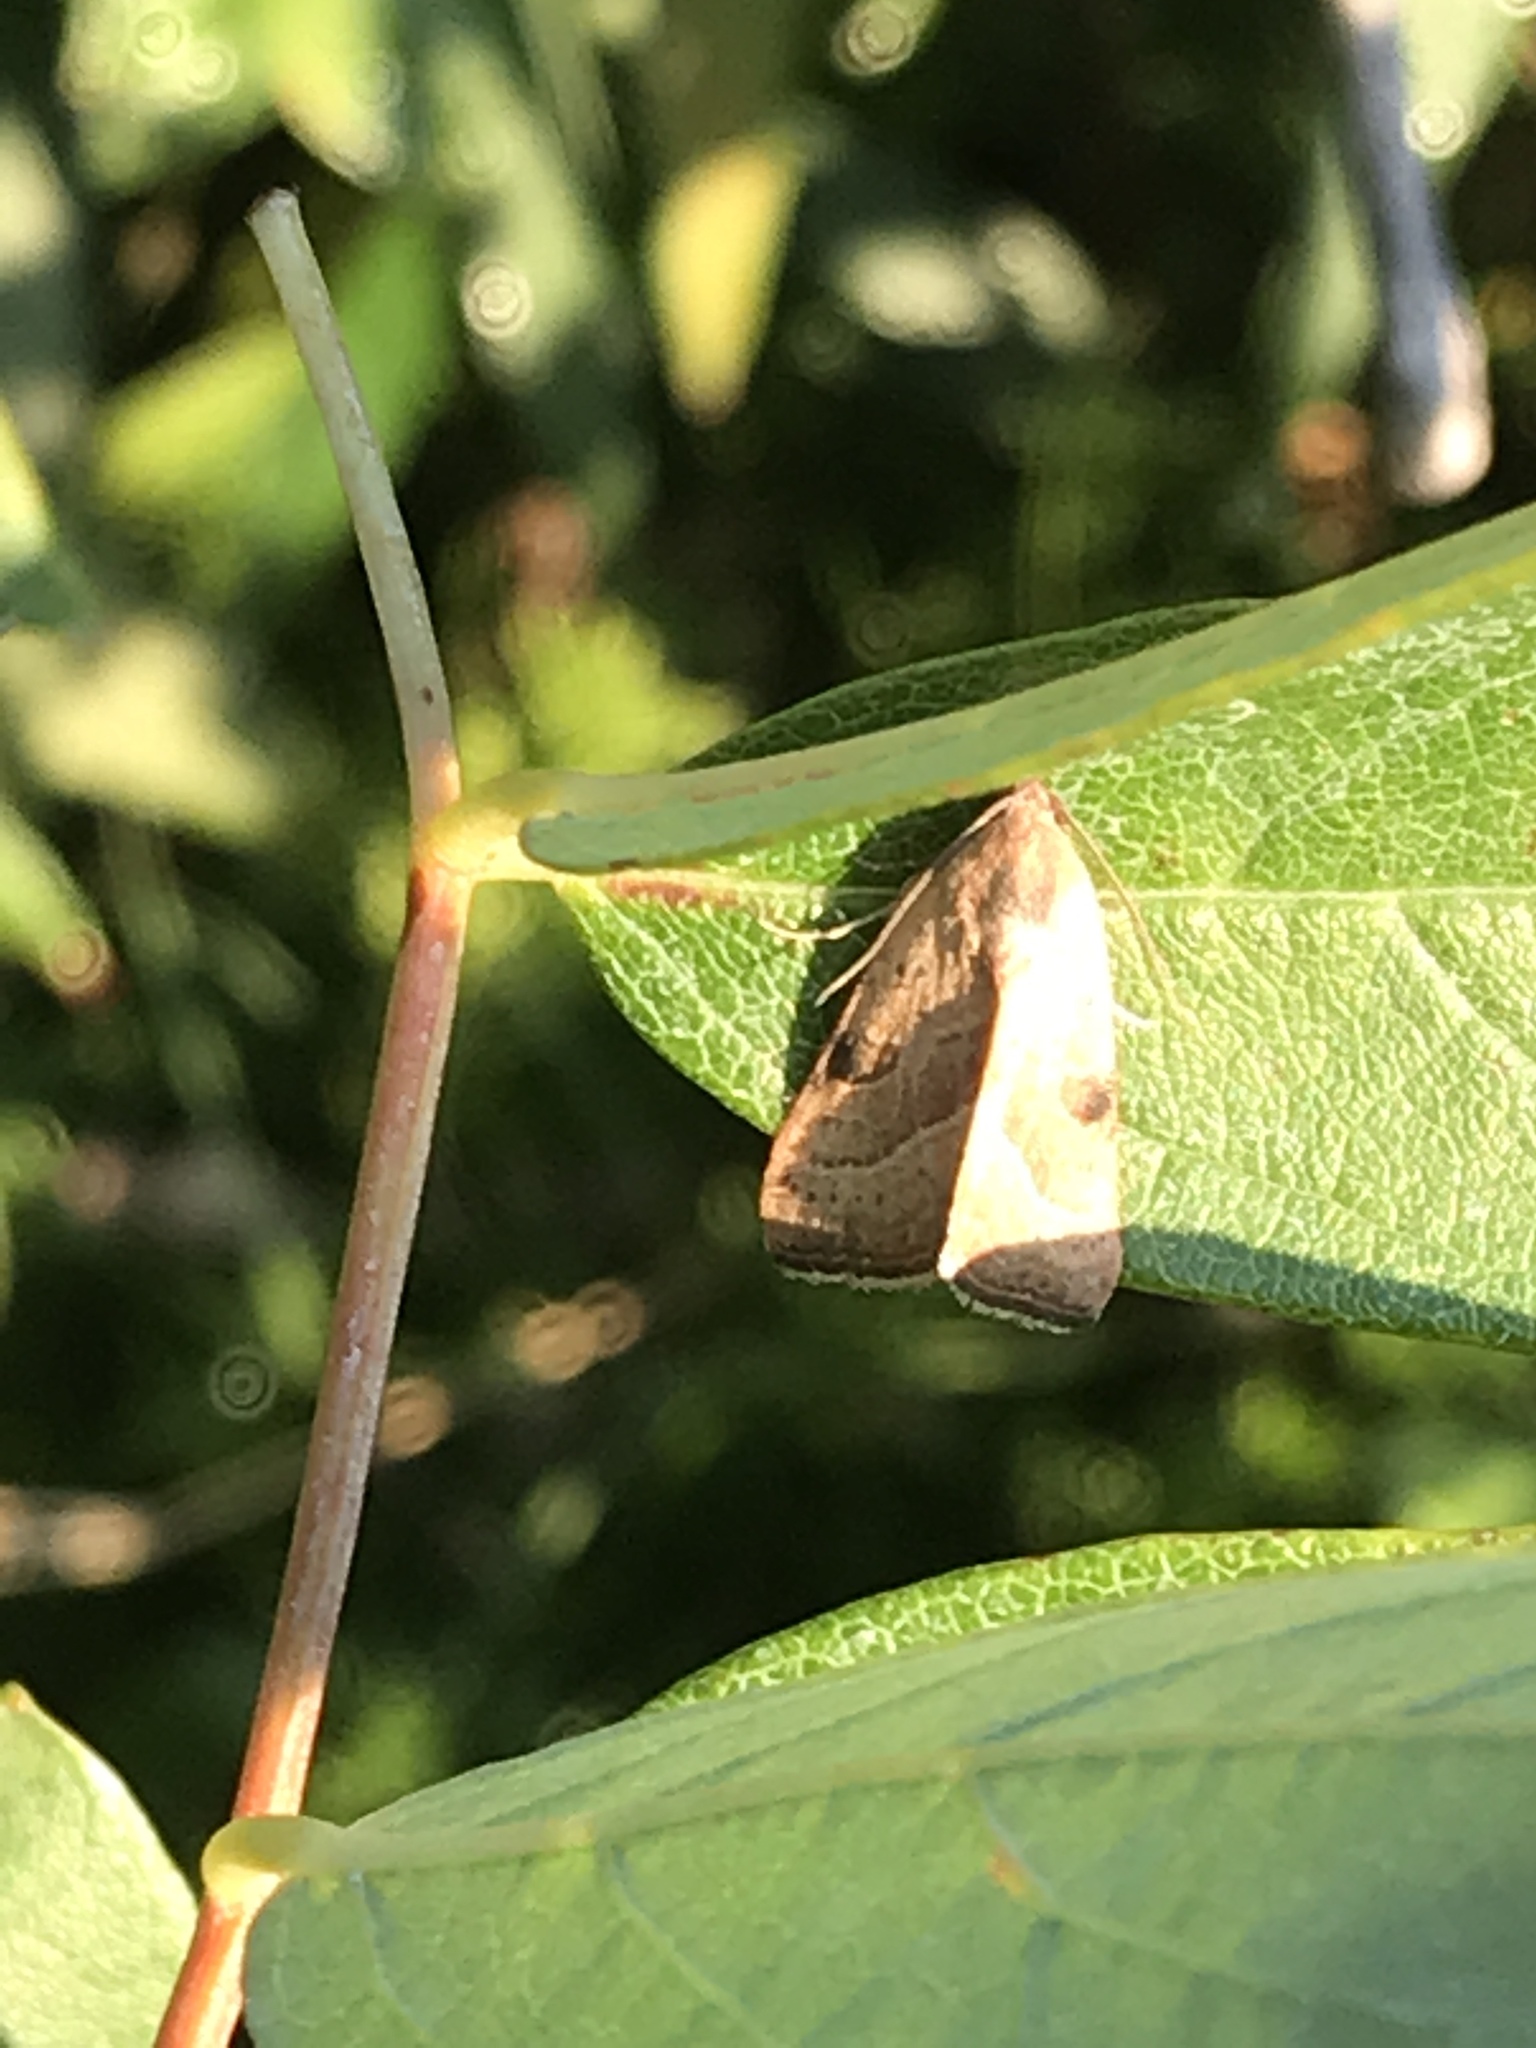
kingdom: Animalia
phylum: Arthropoda
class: Insecta
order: Lepidoptera
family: Noctuidae
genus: Galgula
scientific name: Galgula partita
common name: Wedgeling
